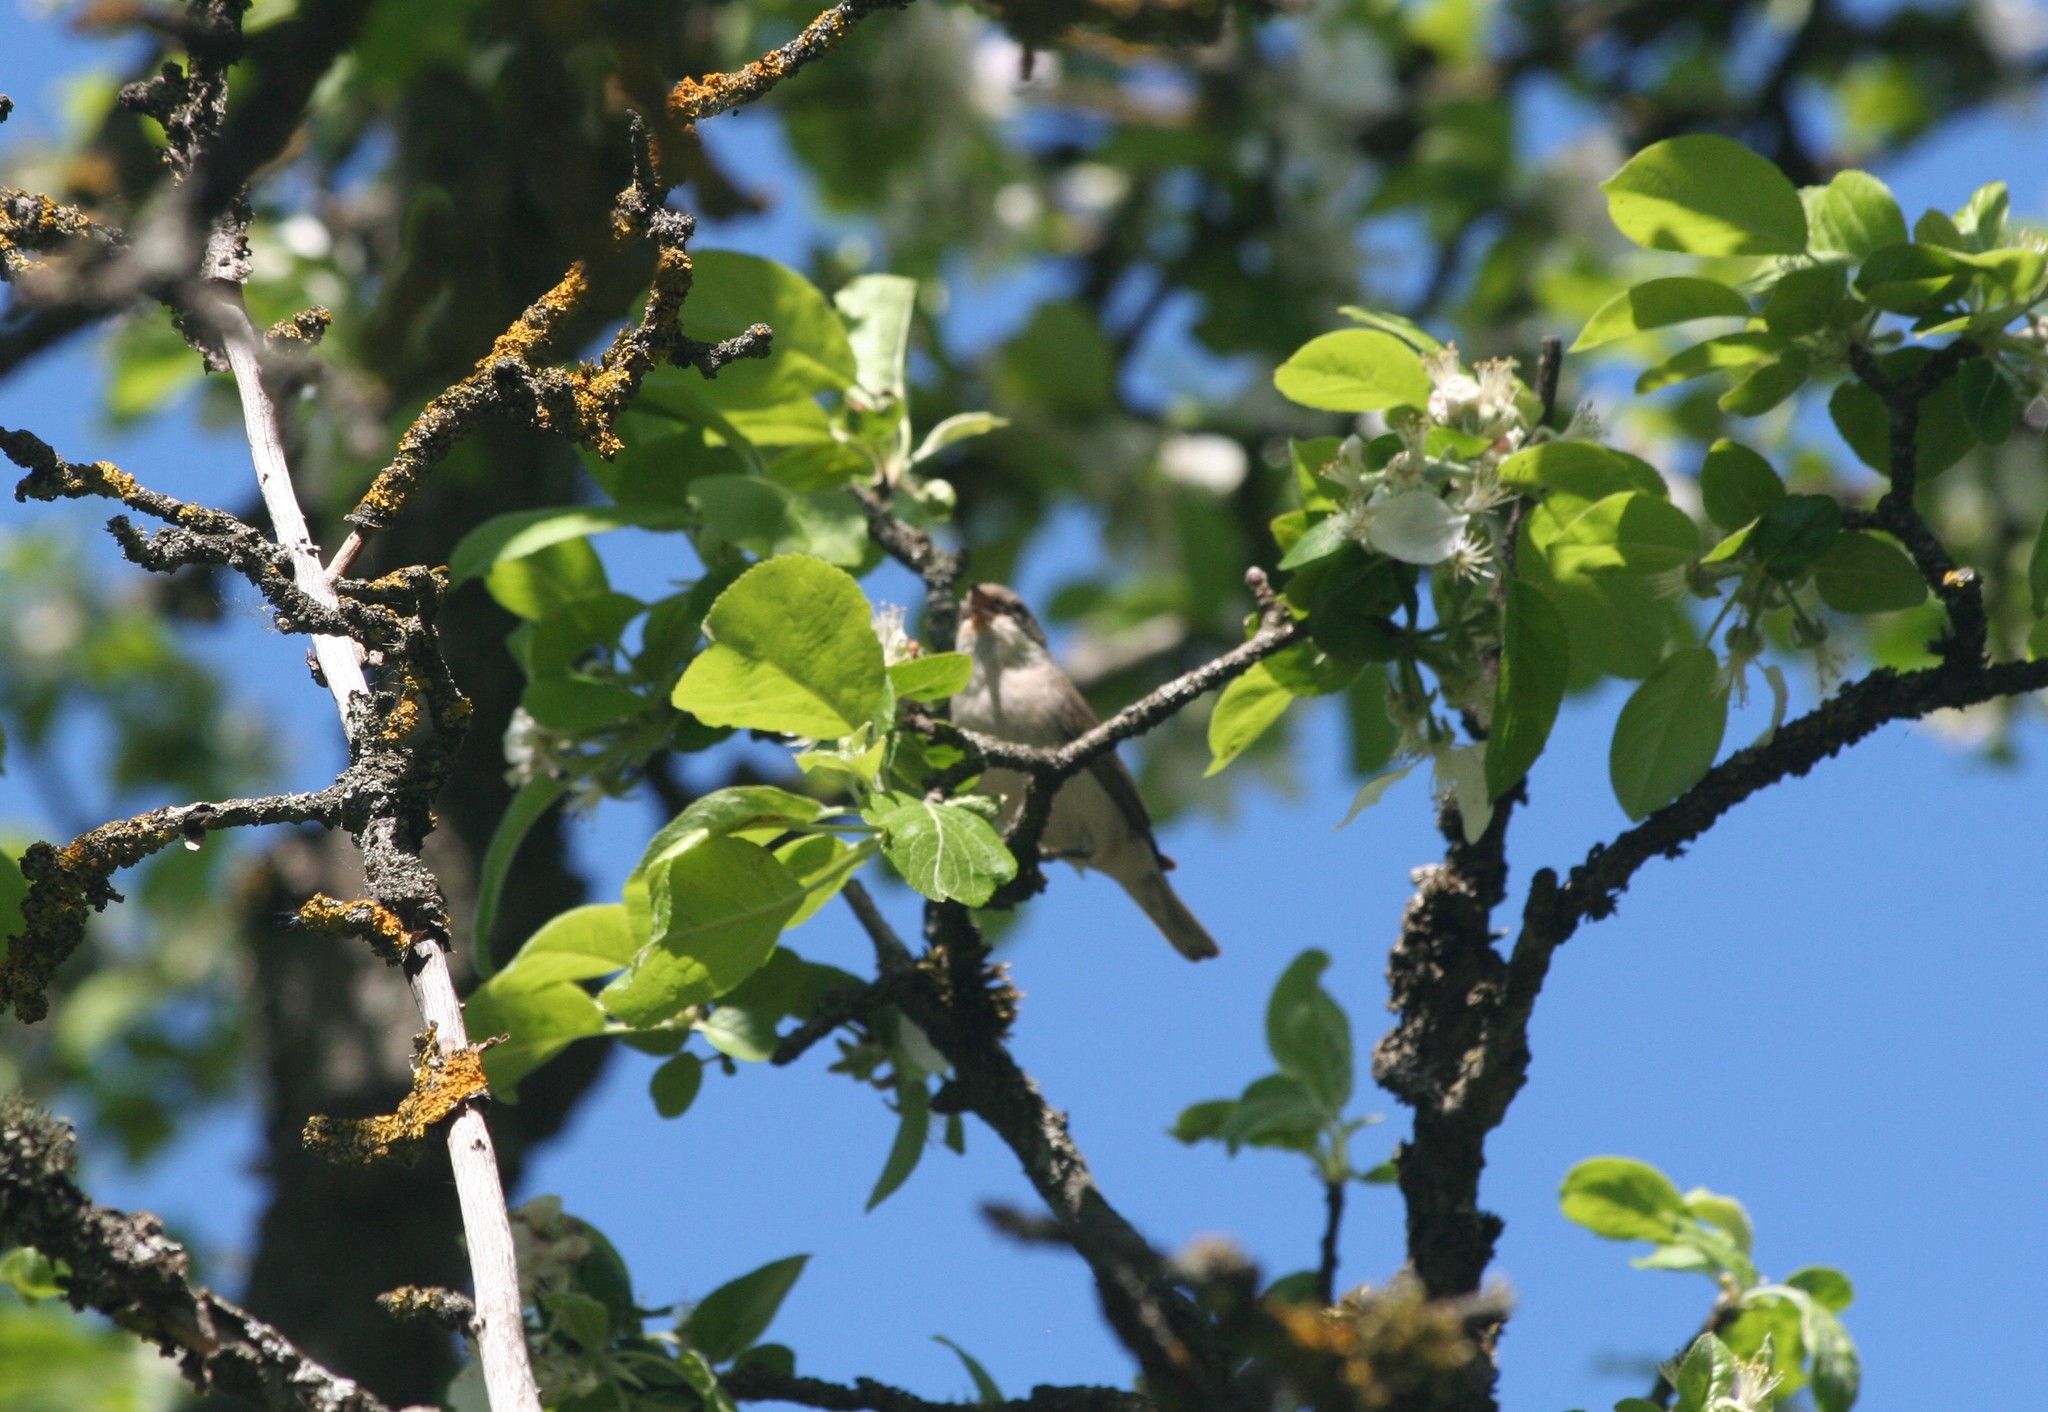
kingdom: Animalia
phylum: Chordata
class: Aves
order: Passeriformes
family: Sylviidae
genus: Sylvia
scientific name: Sylvia curruca
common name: Lesser whitethroat
